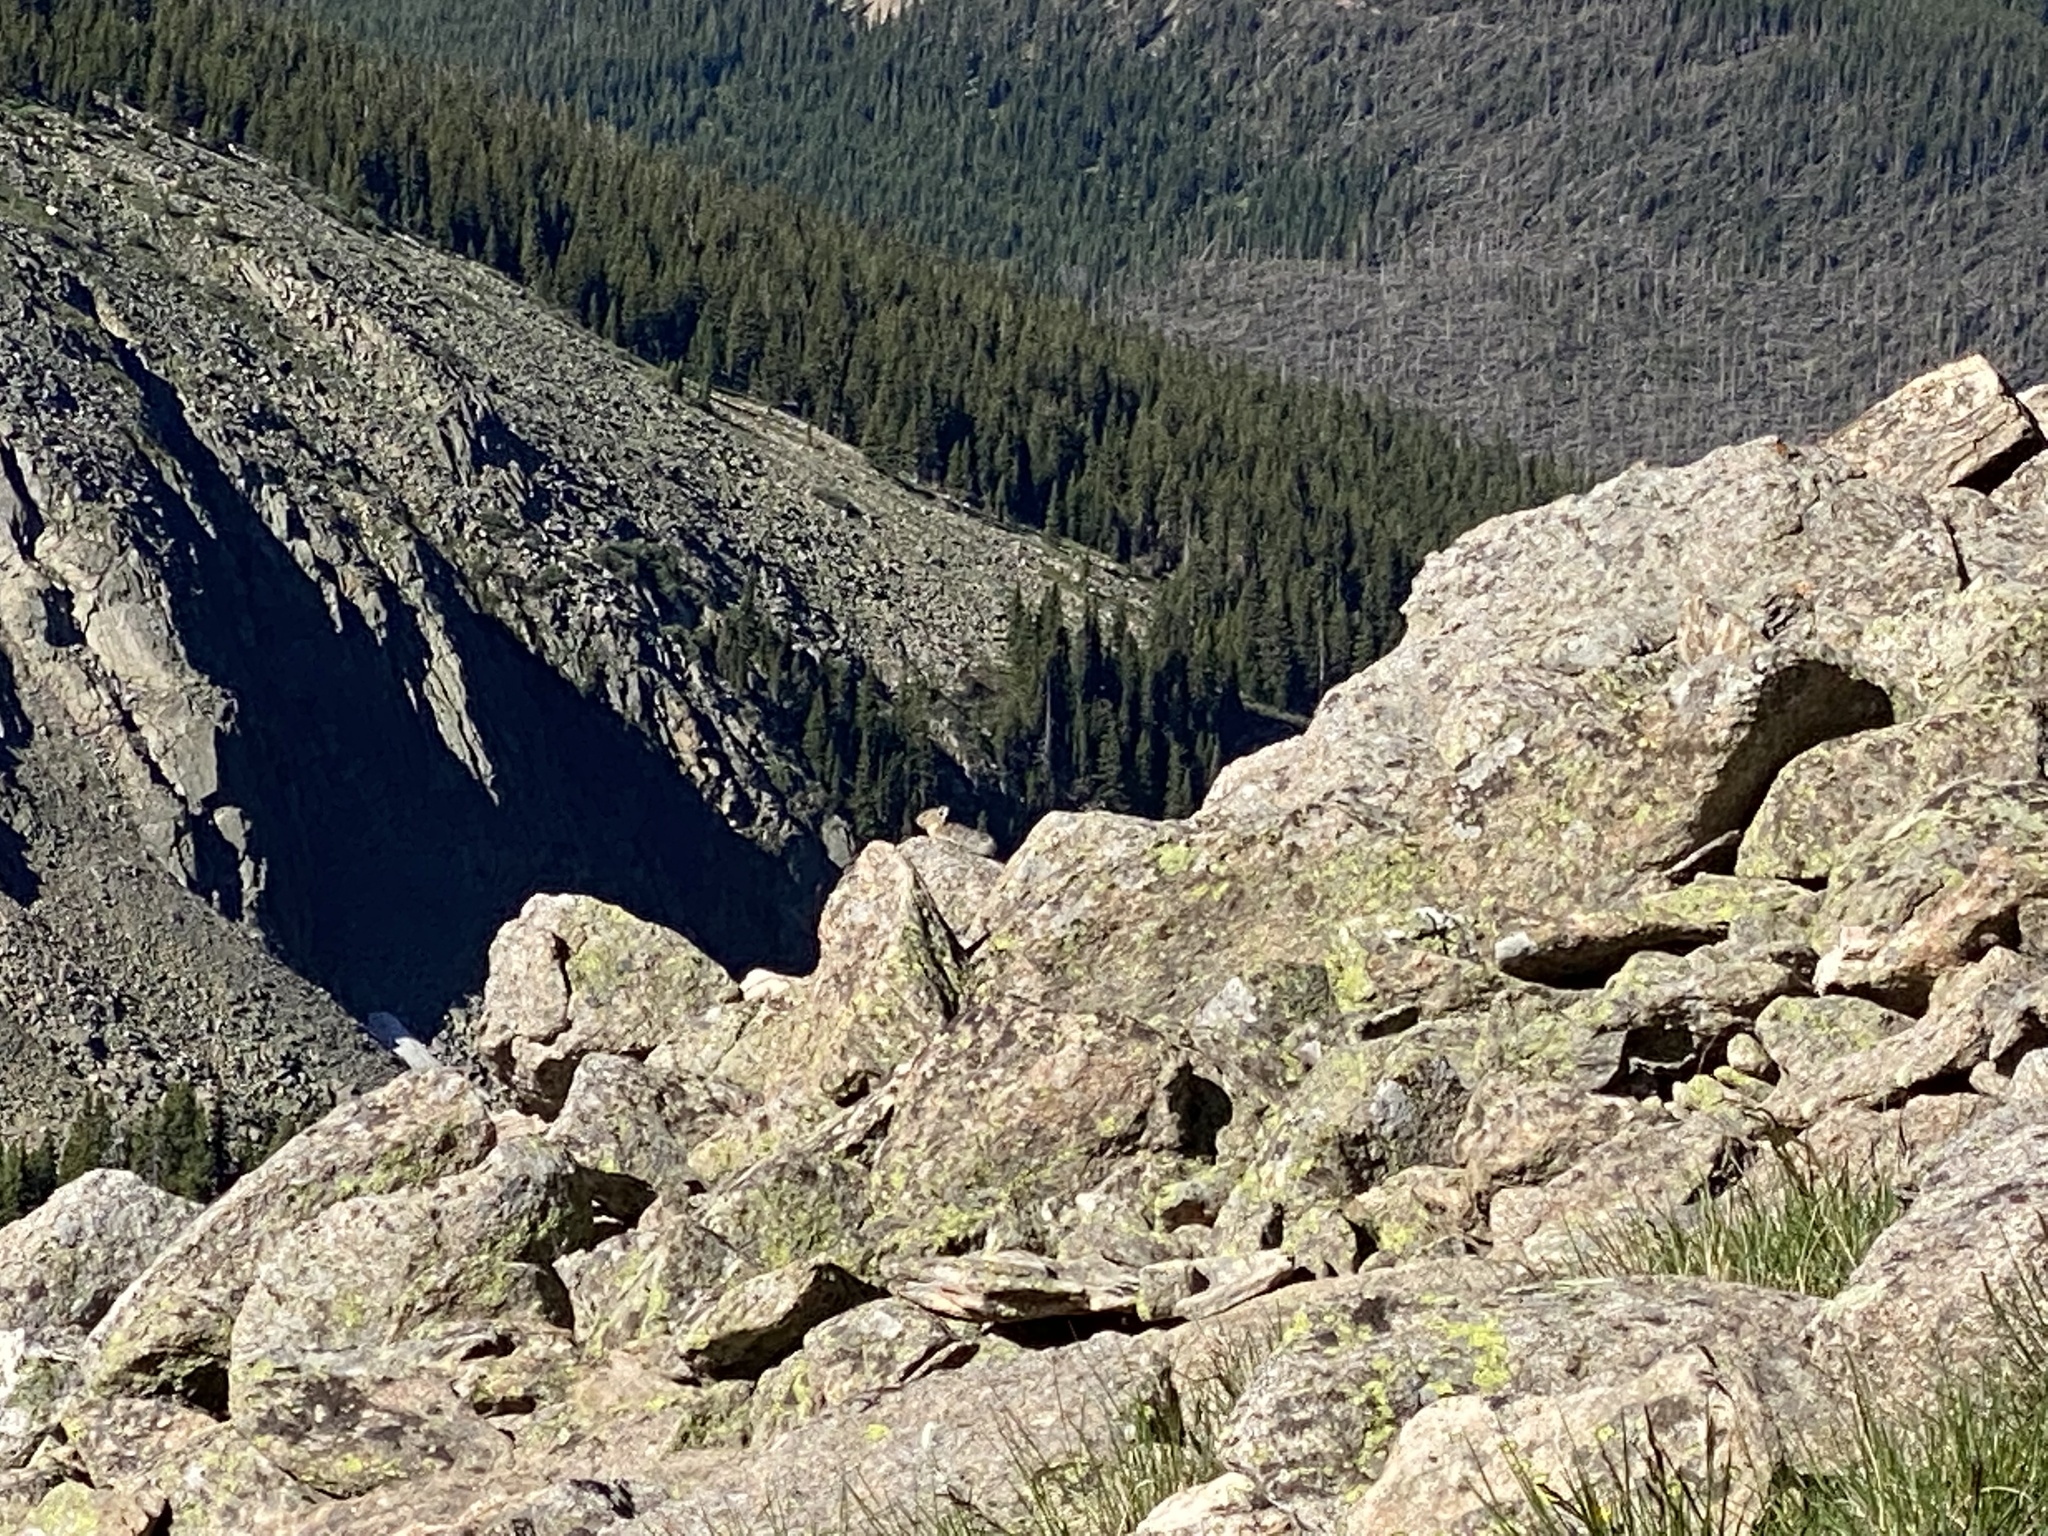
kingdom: Animalia
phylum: Chordata
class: Mammalia
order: Lagomorpha
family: Ochotonidae
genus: Ochotona
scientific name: Ochotona princeps
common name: American pika
